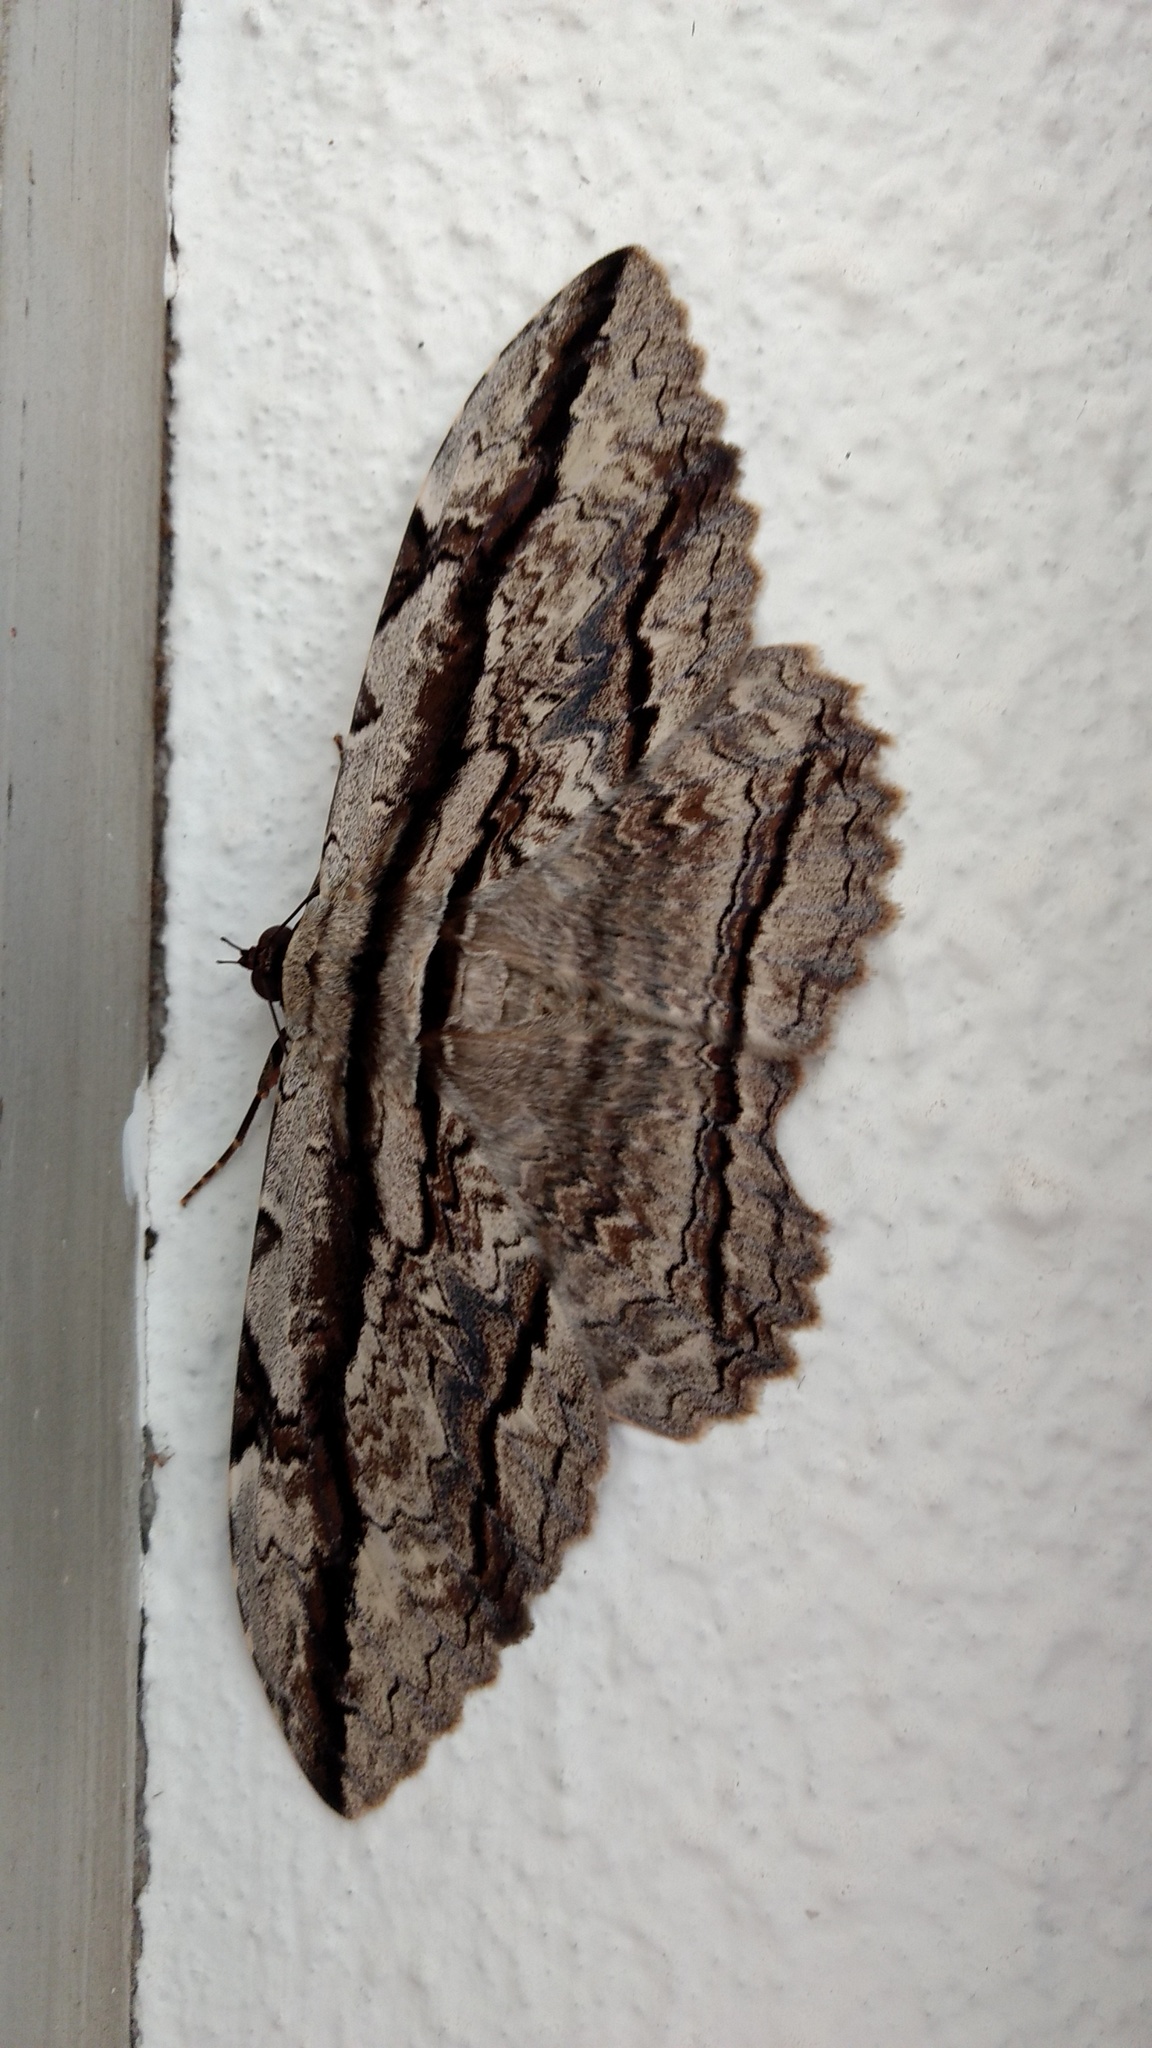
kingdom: Animalia
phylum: Arthropoda
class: Insecta
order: Lepidoptera
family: Erebidae
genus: Thysania
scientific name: Thysania zenobia
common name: Owl moth
